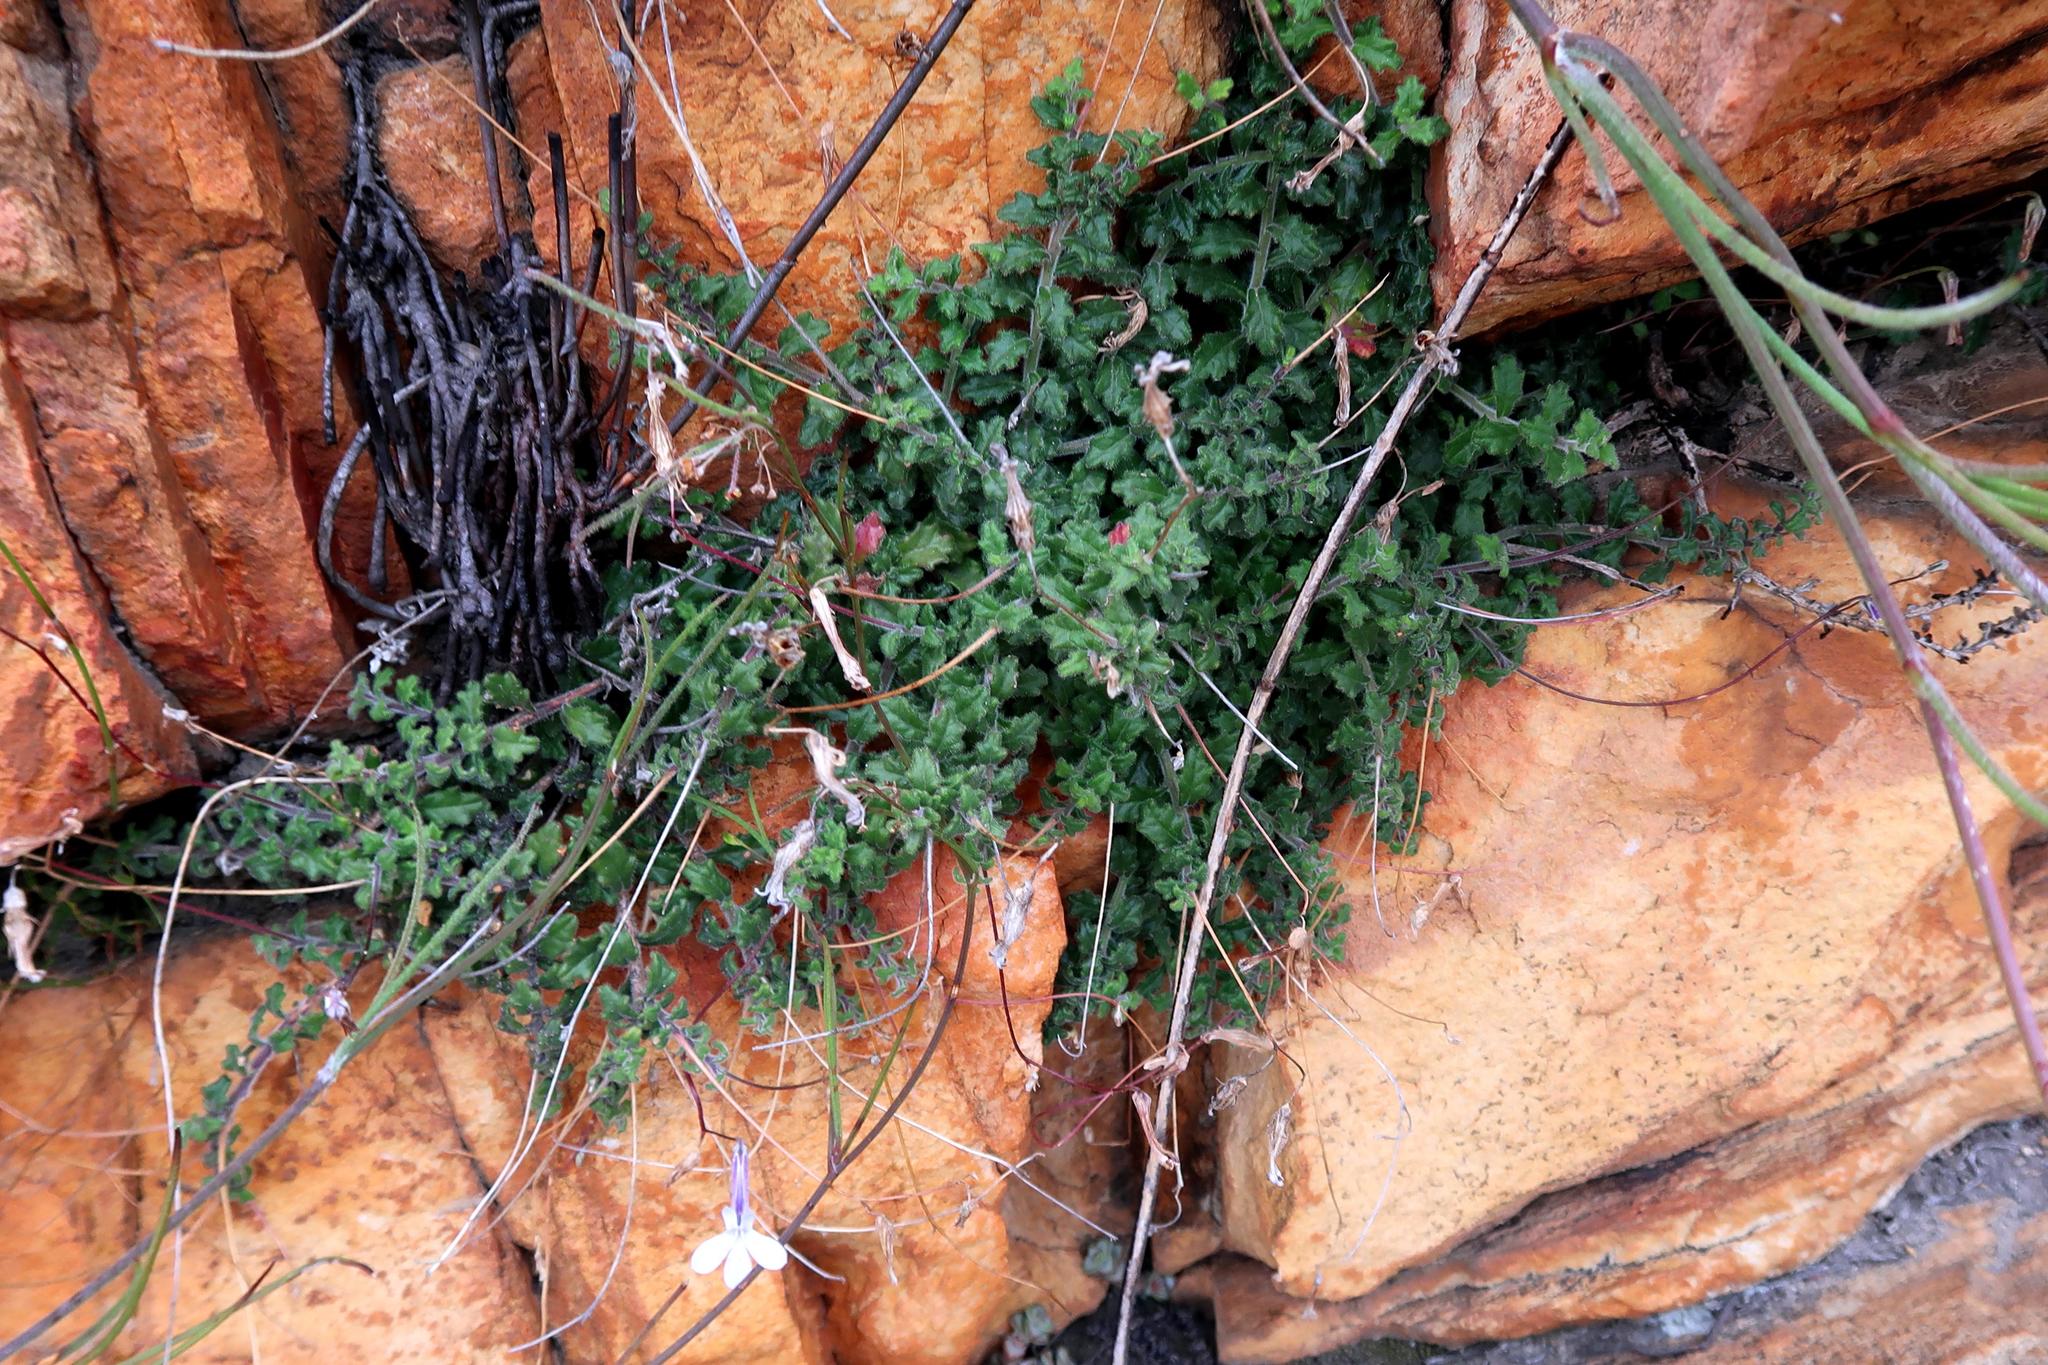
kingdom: Plantae
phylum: Tracheophyta
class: Magnoliopsida
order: Asterales
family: Campanulaceae
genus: Lobelia
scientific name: Lobelia dichroma
